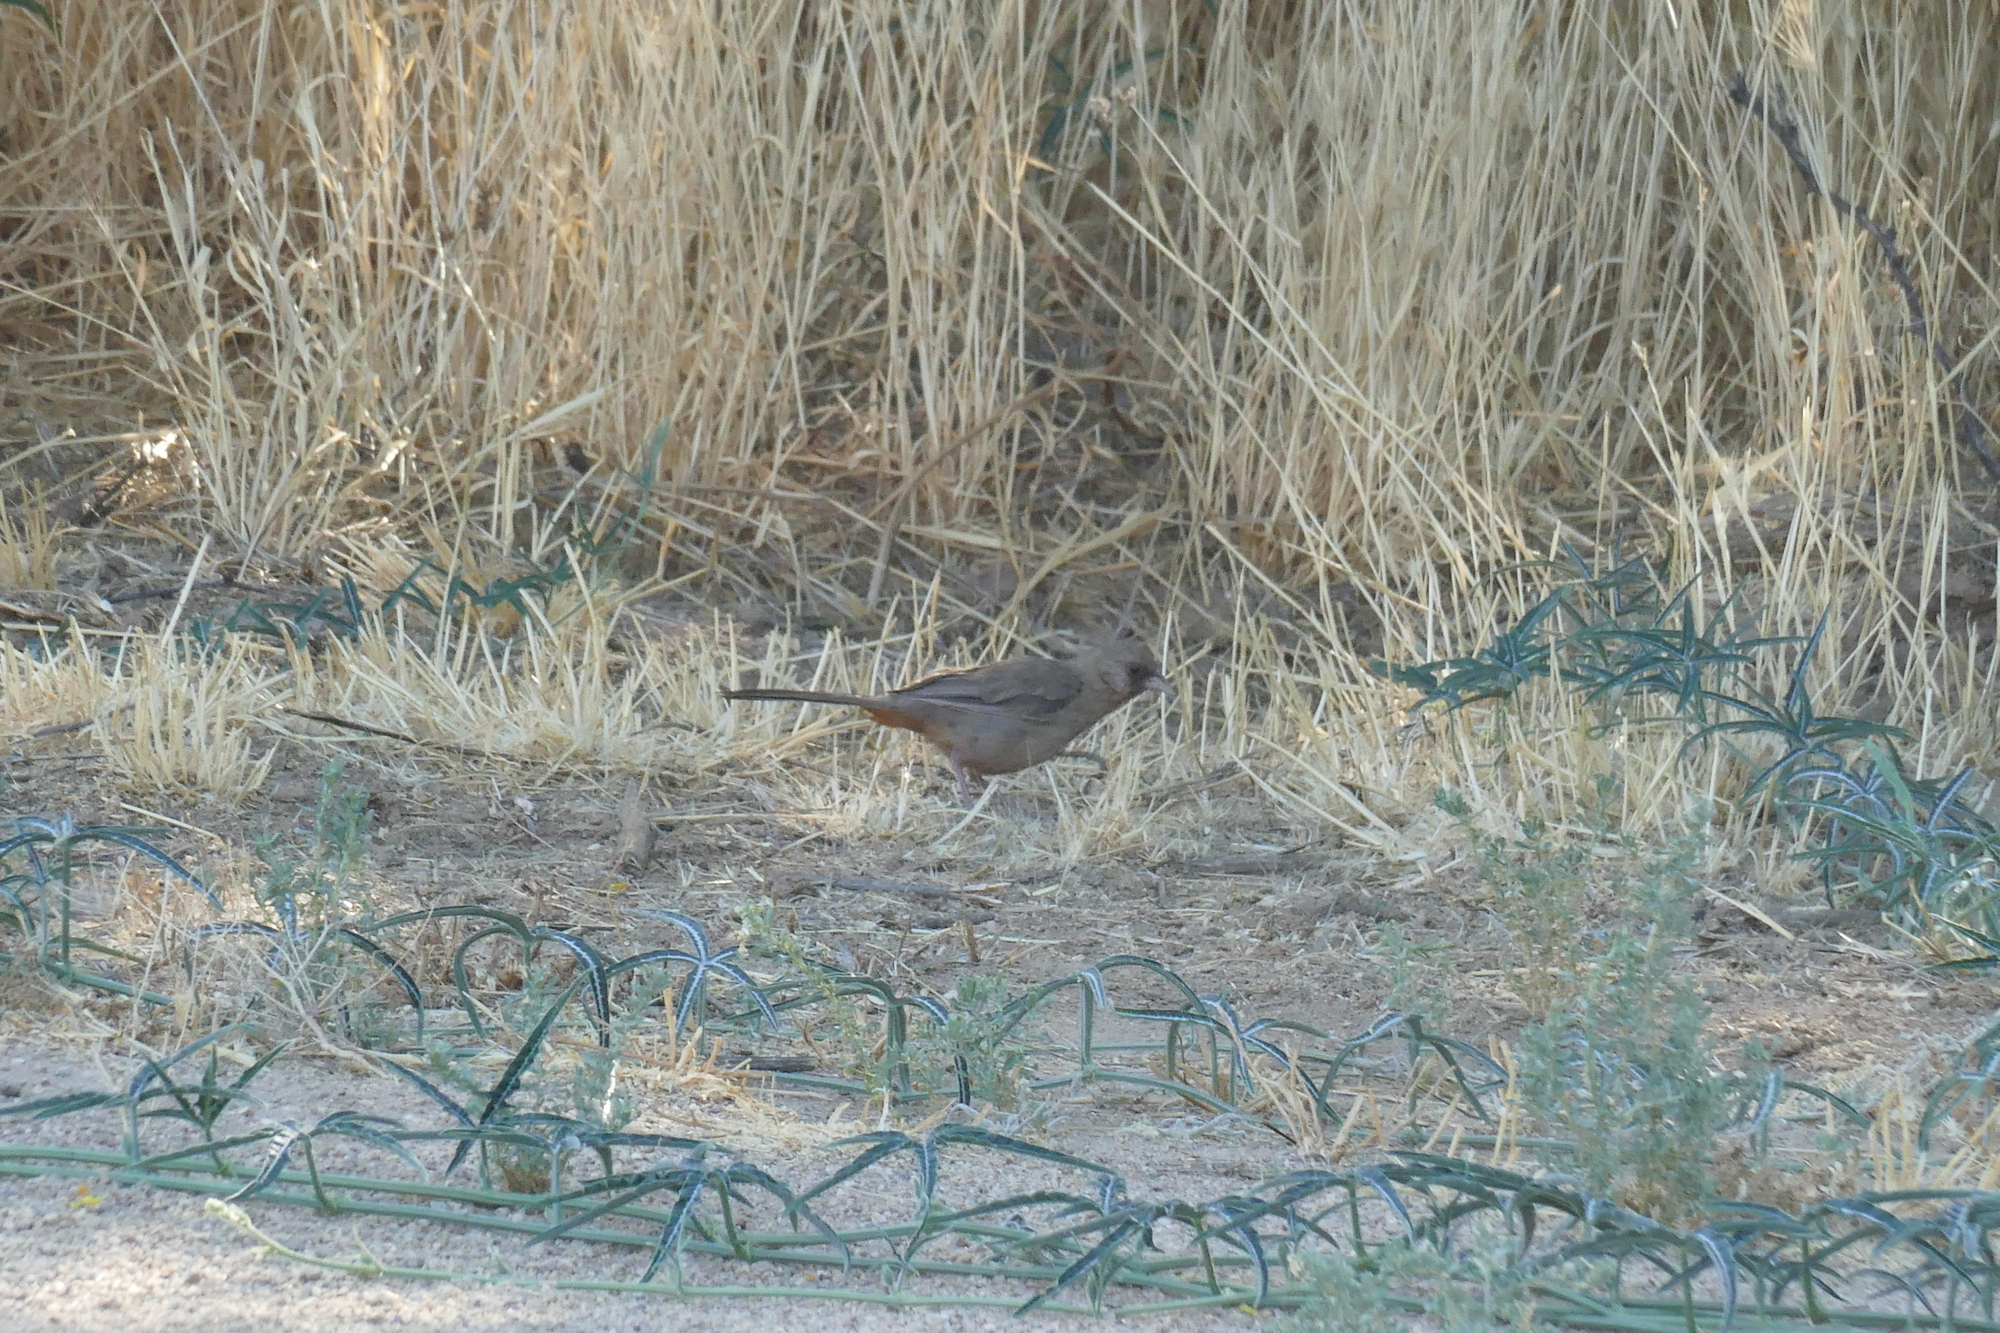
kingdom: Plantae
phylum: Tracheophyta
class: Magnoliopsida
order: Cucurbitales
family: Cucurbitaceae
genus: Cucurbita
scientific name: Cucurbita digitata
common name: Finger-leaf gourd
